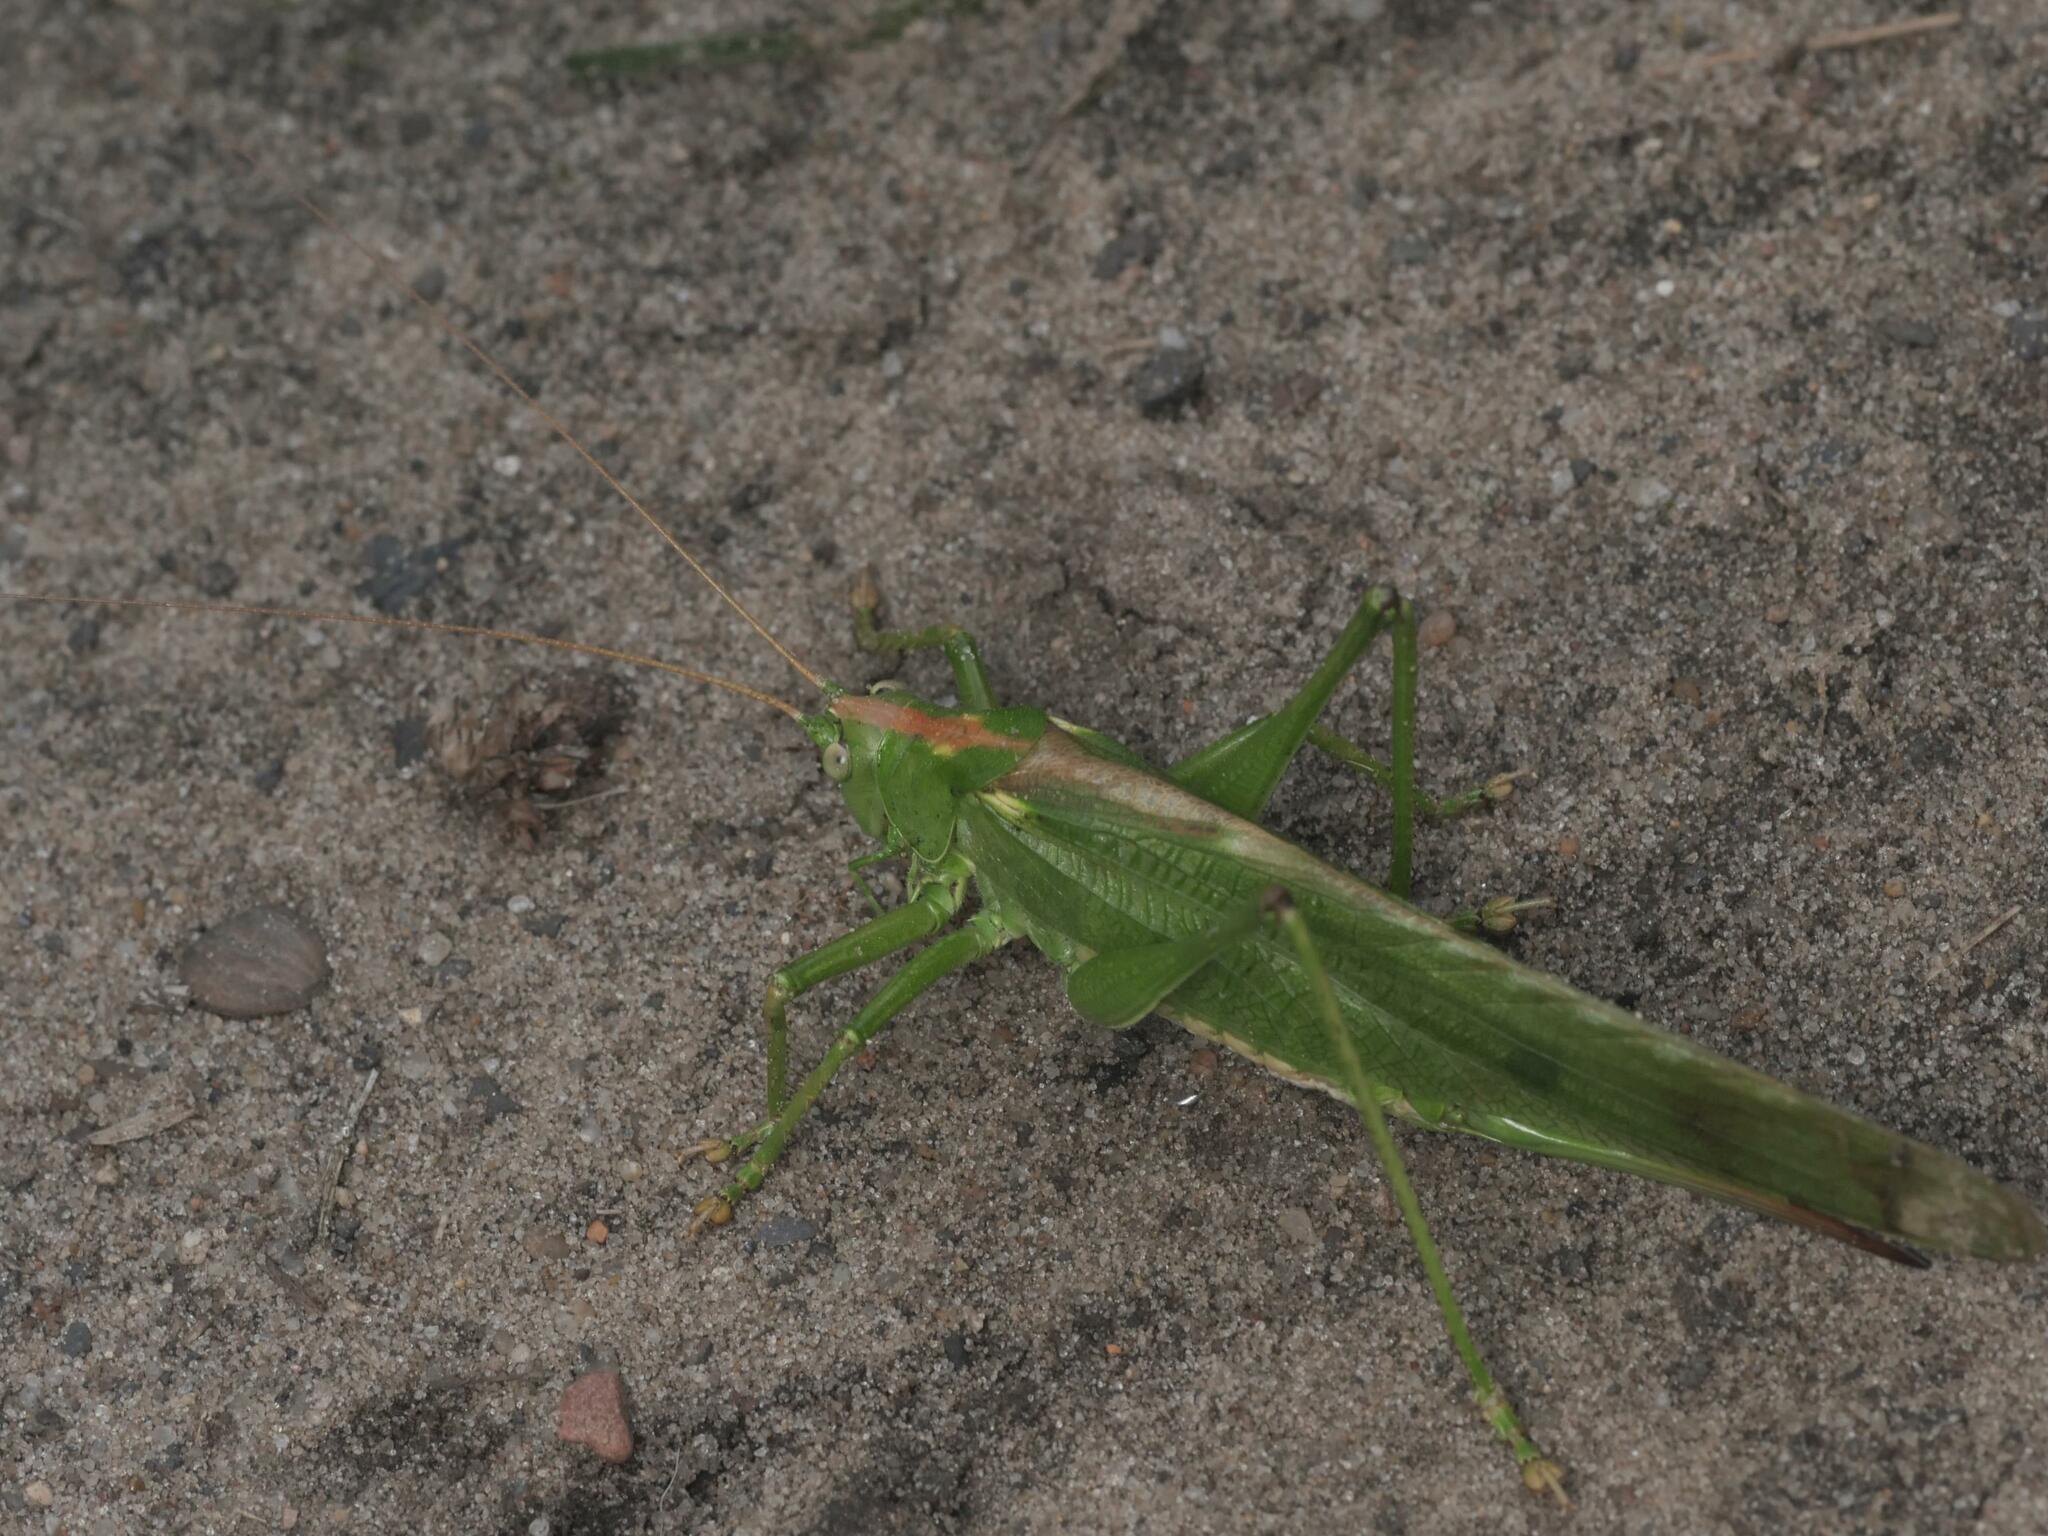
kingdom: Animalia
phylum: Arthropoda
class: Insecta
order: Orthoptera
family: Tettigoniidae
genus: Tettigonia
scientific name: Tettigonia viridissima
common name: Great green bush-cricket
